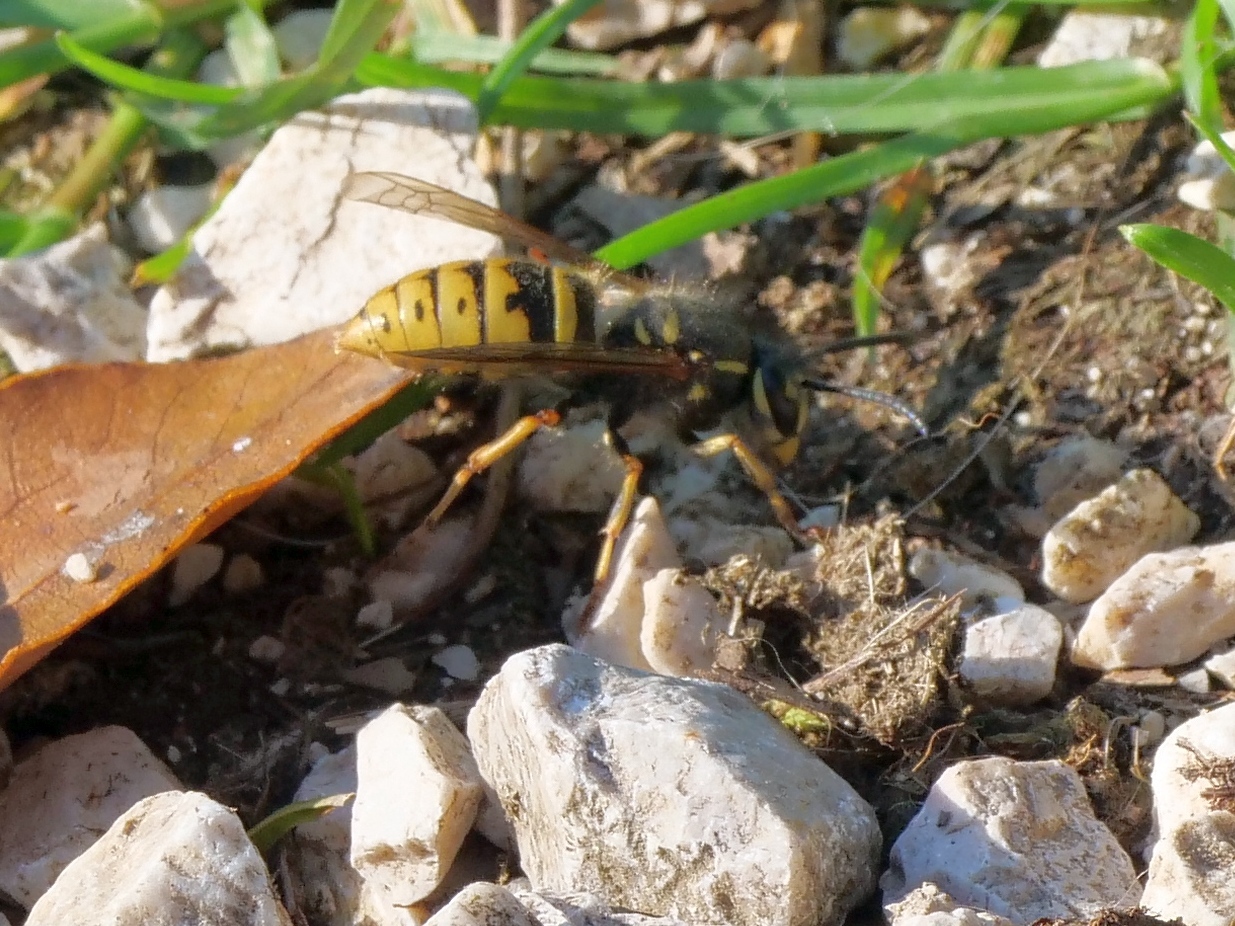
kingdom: Animalia
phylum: Arthropoda
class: Insecta
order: Hymenoptera
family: Vespidae
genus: Vespula
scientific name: Vespula vulgaris
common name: Common wasp
